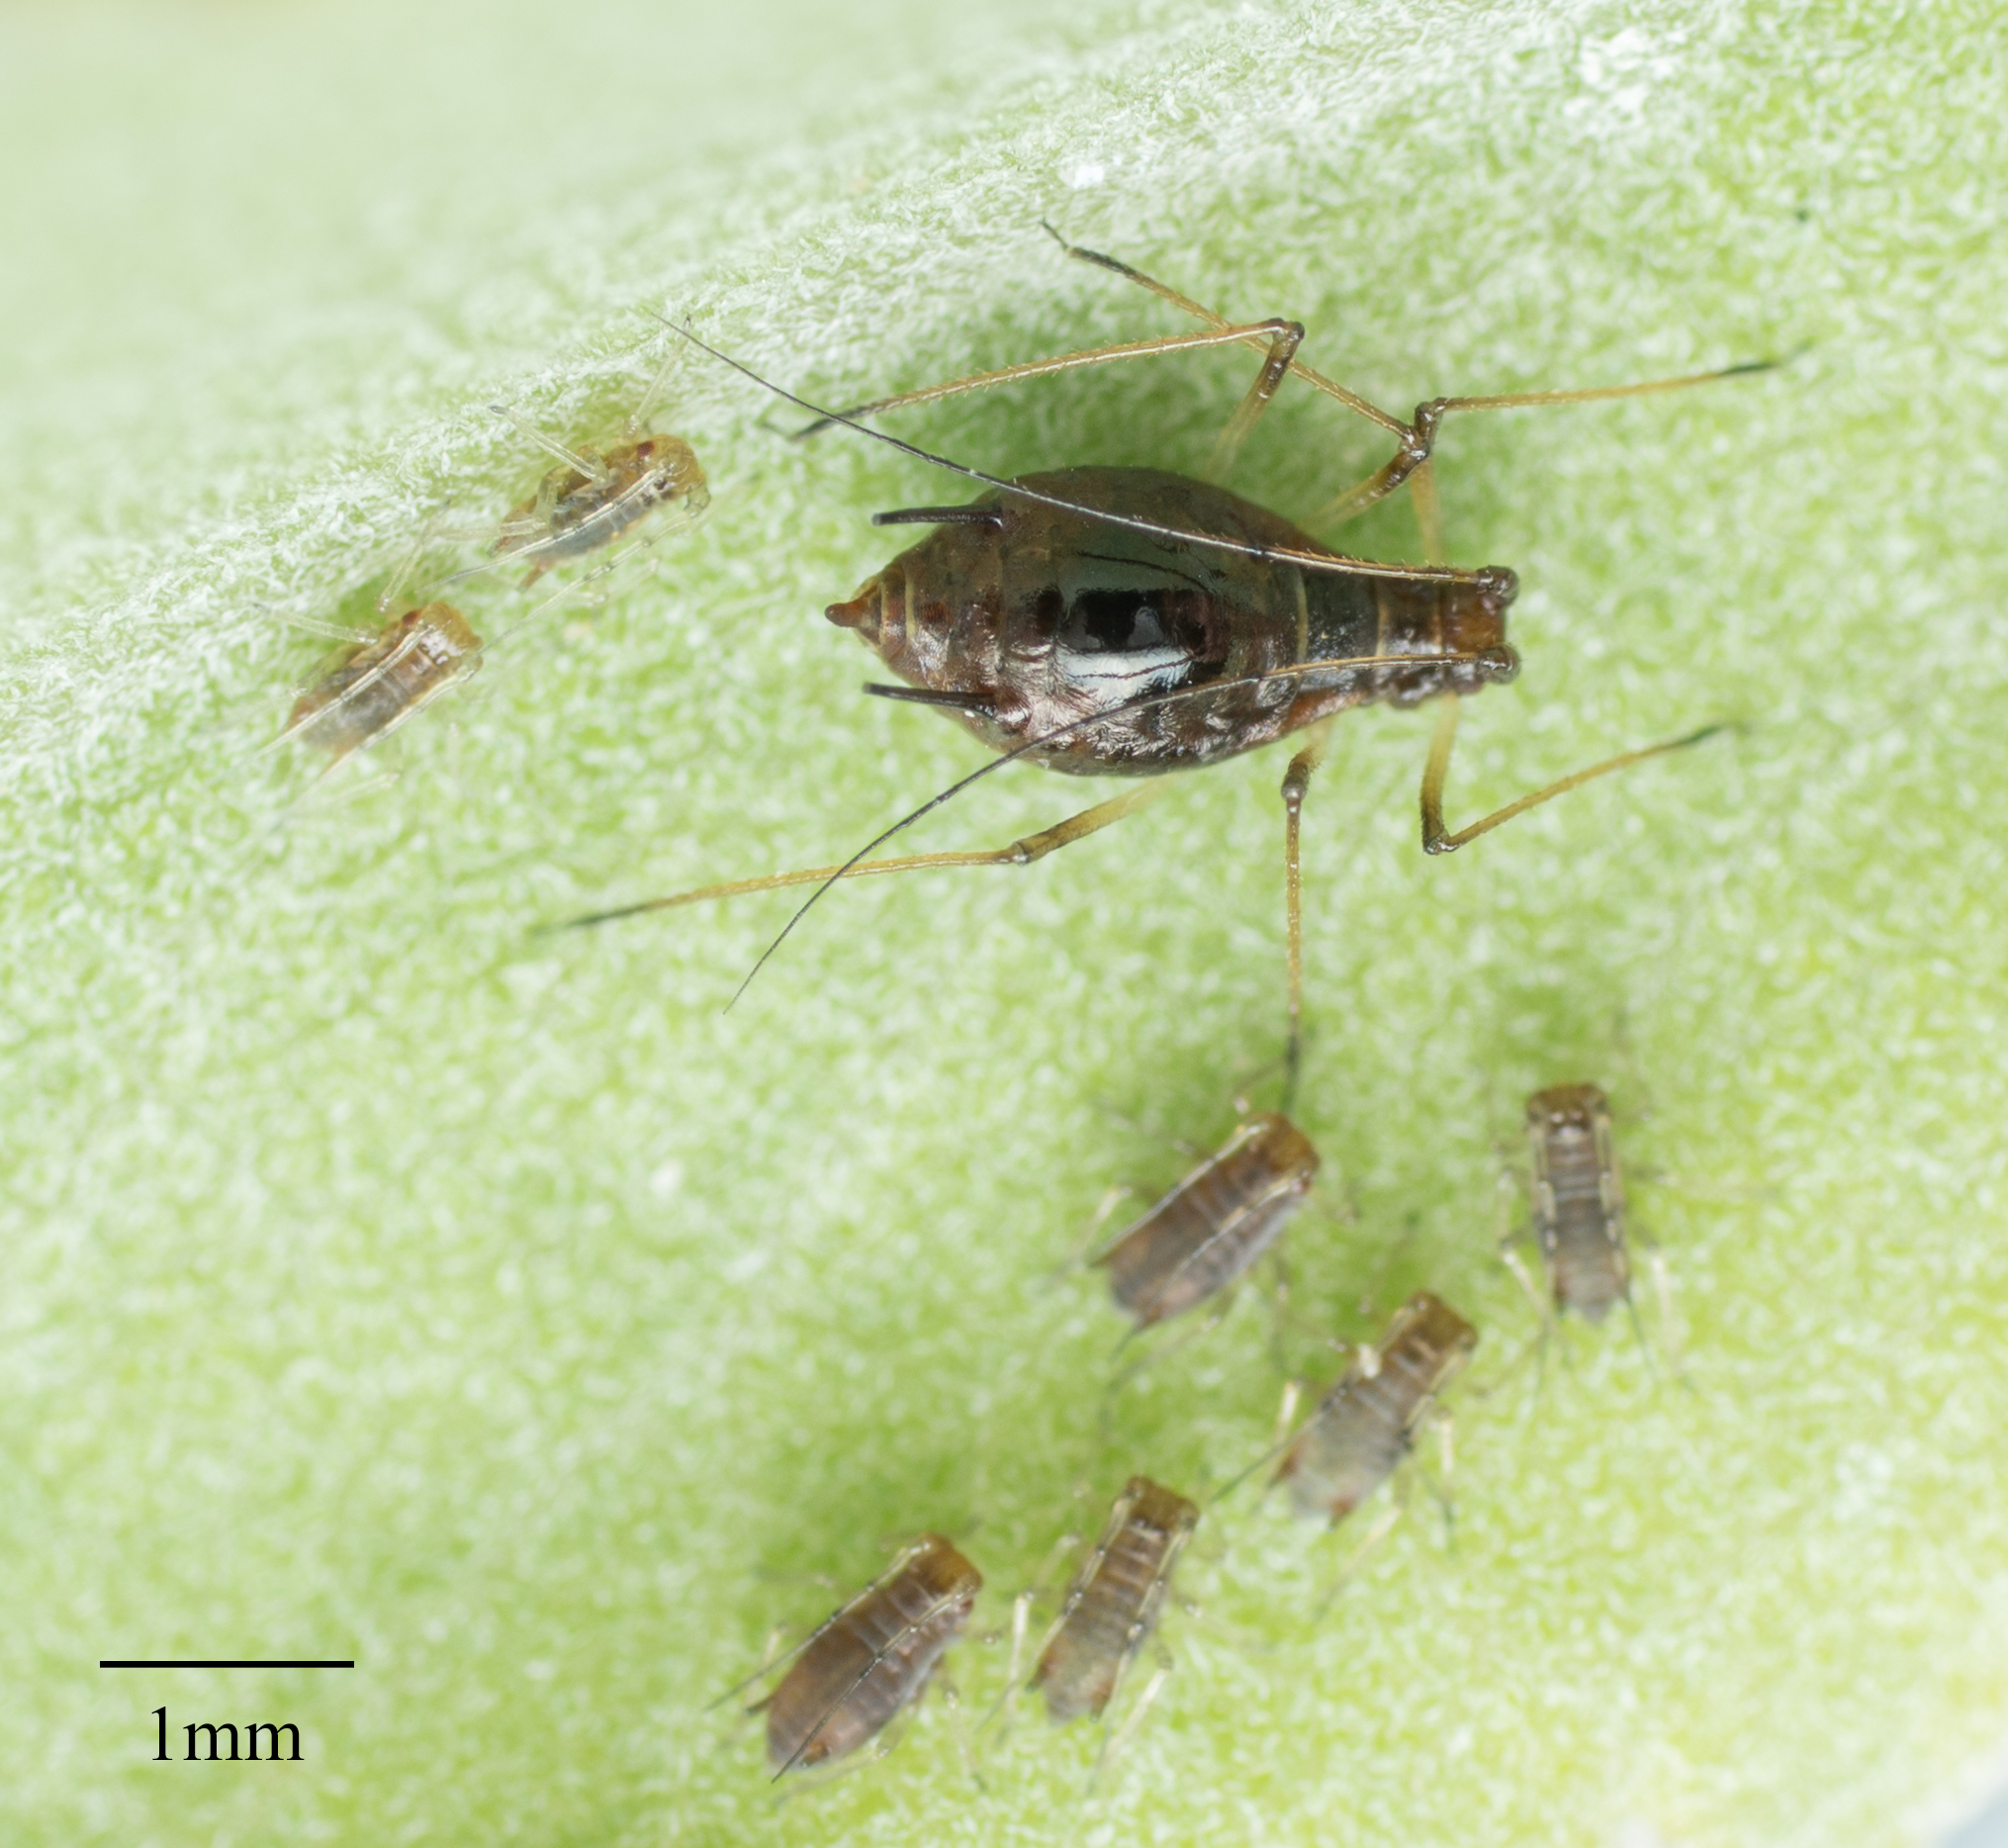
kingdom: Animalia
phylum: Arthropoda
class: Insecta
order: Hemiptera
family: Aphididae
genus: Macrosiphum
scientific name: Macrosiphum salviae
